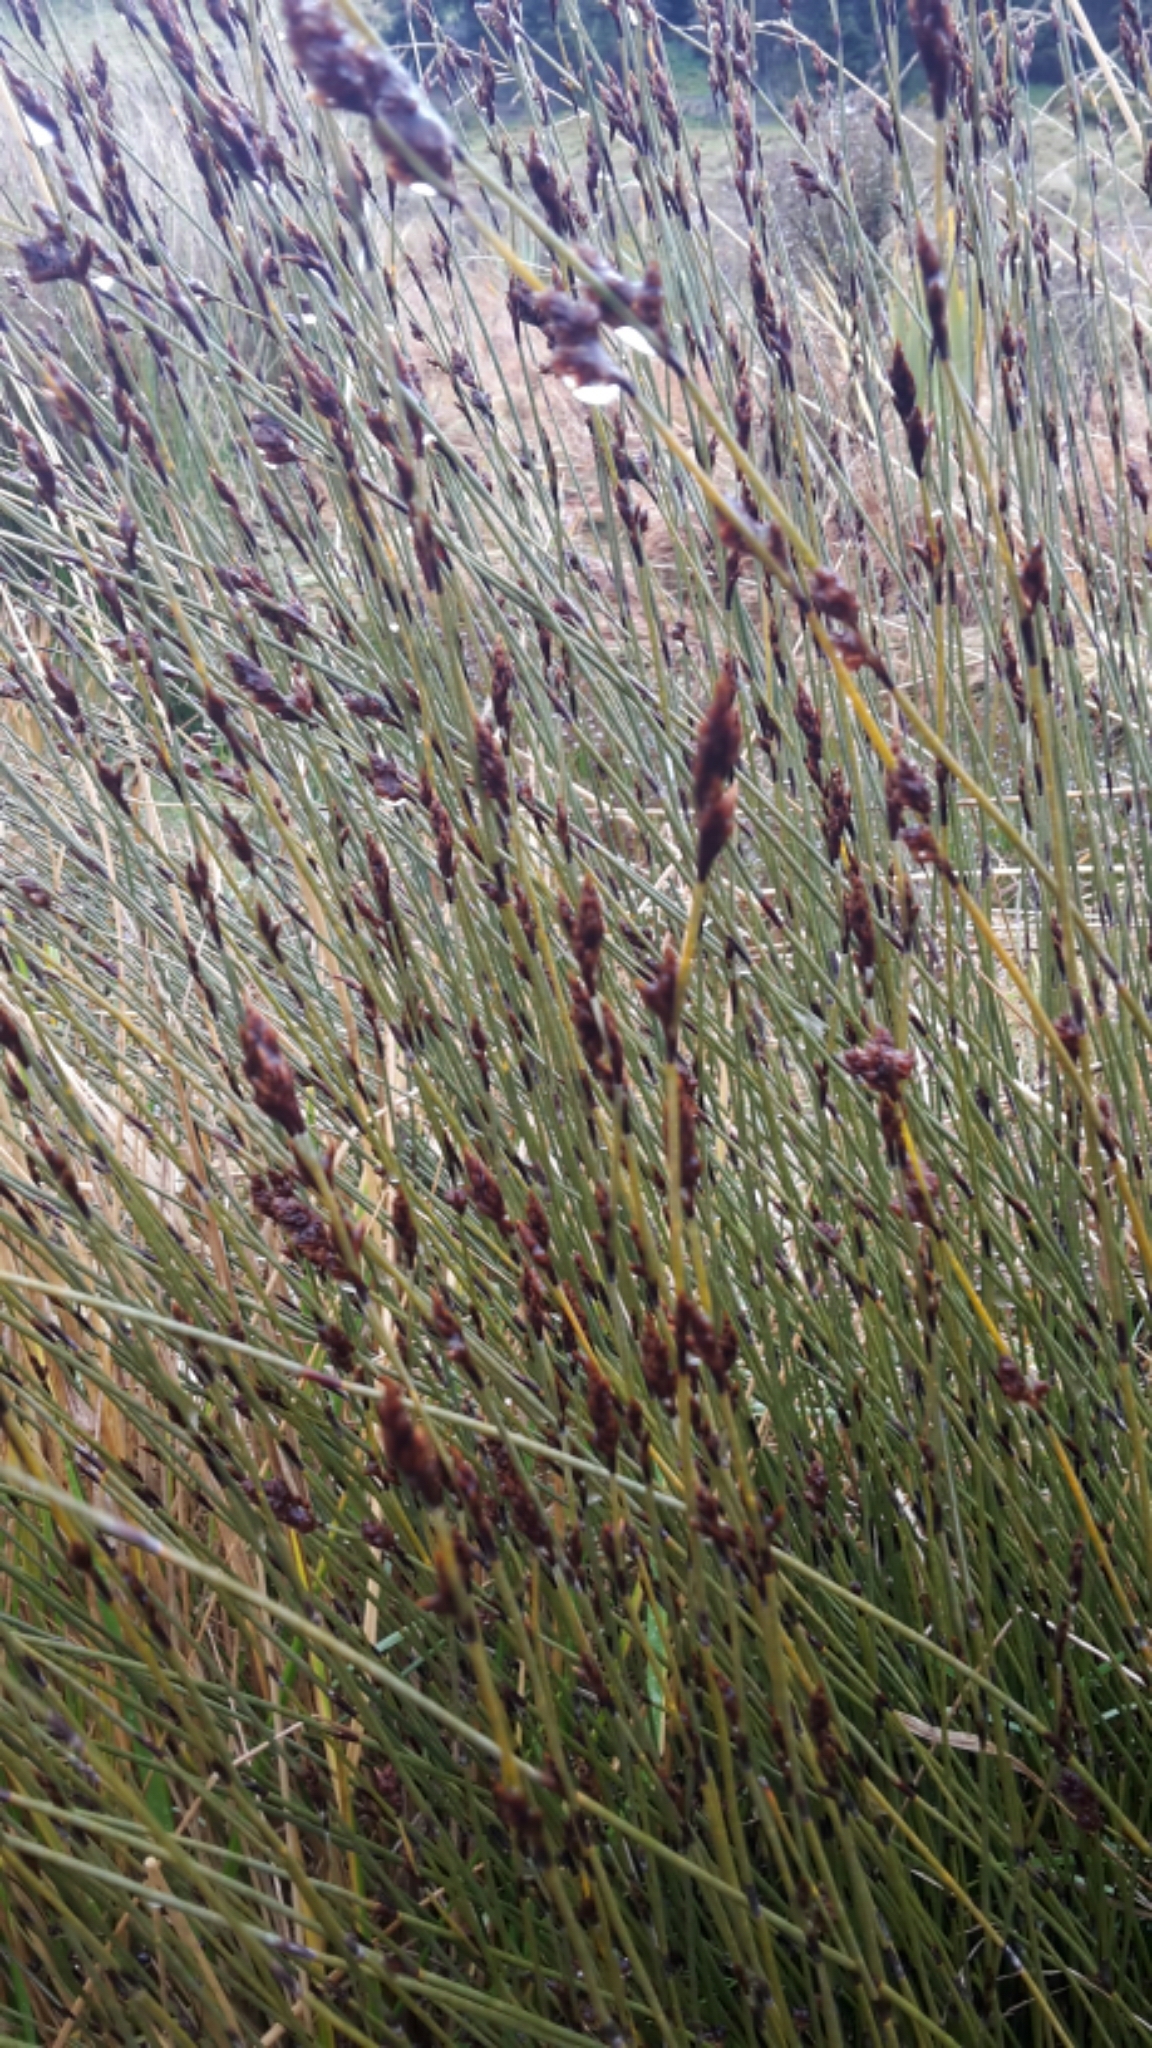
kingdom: Plantae
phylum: Tracheophyta
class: Liliopsida
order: Poales
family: Restionaceae
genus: Apodasmia
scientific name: Apodasmia similis
